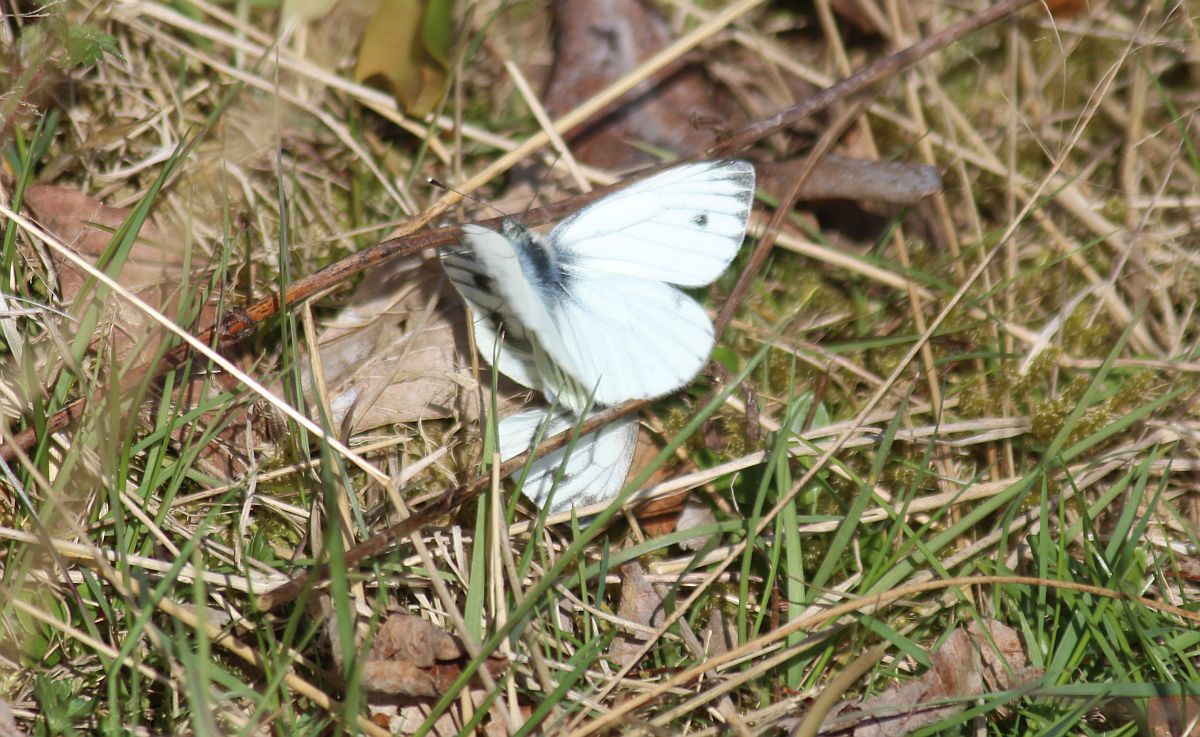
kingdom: Animalia
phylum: Arthropoda
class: Insecta
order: Lepidoptera
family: Pieridae
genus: Pieris
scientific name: Pieris napi
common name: Green-veined white
